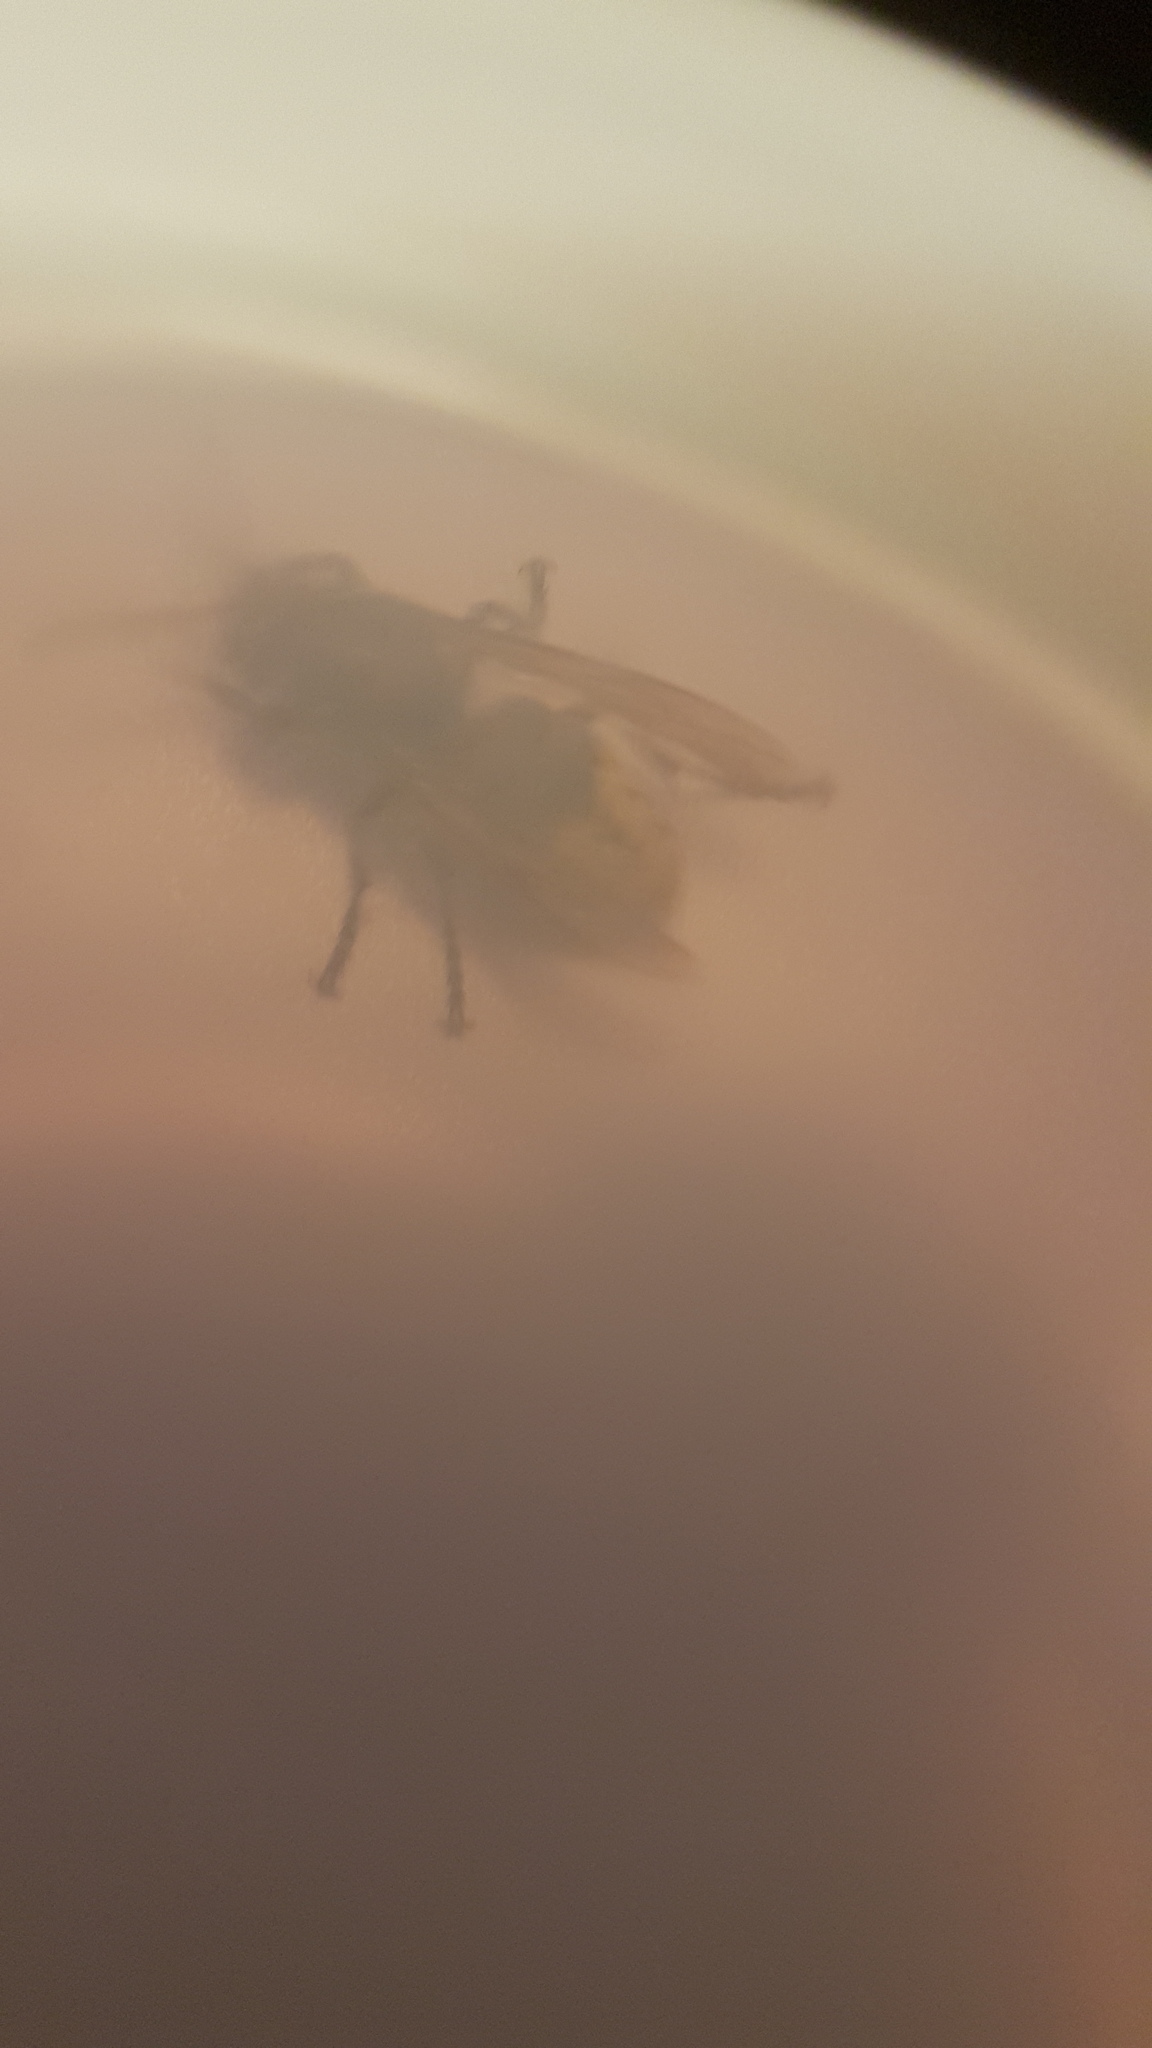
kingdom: Animalia
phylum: Arthropoda
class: Insecta
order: Hymenoptera
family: Vespidae
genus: Vespa
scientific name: Vespa crabro
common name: Hornet
